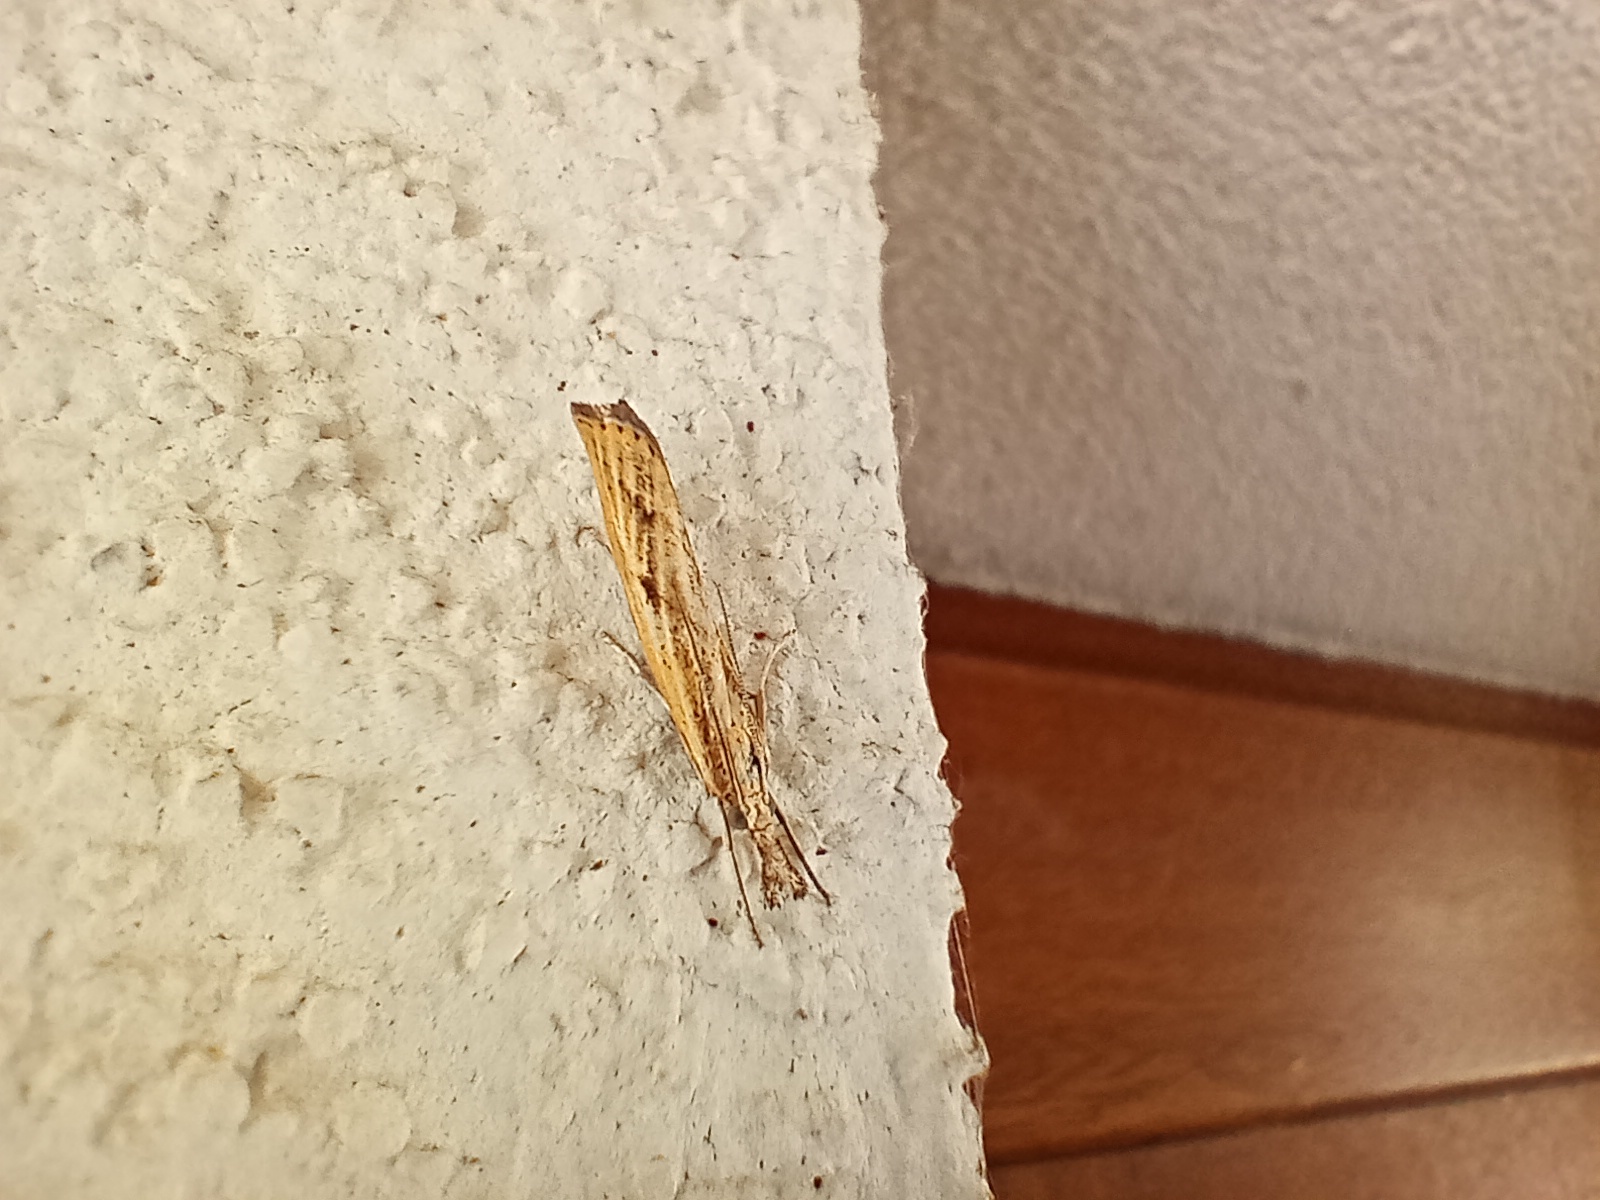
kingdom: Animalia
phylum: Arthropoda
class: Insecta
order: Lepidoptera
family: Crambidae
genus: Agriphila
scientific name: Agriphila inquinatella
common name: Barred grass-veneer
